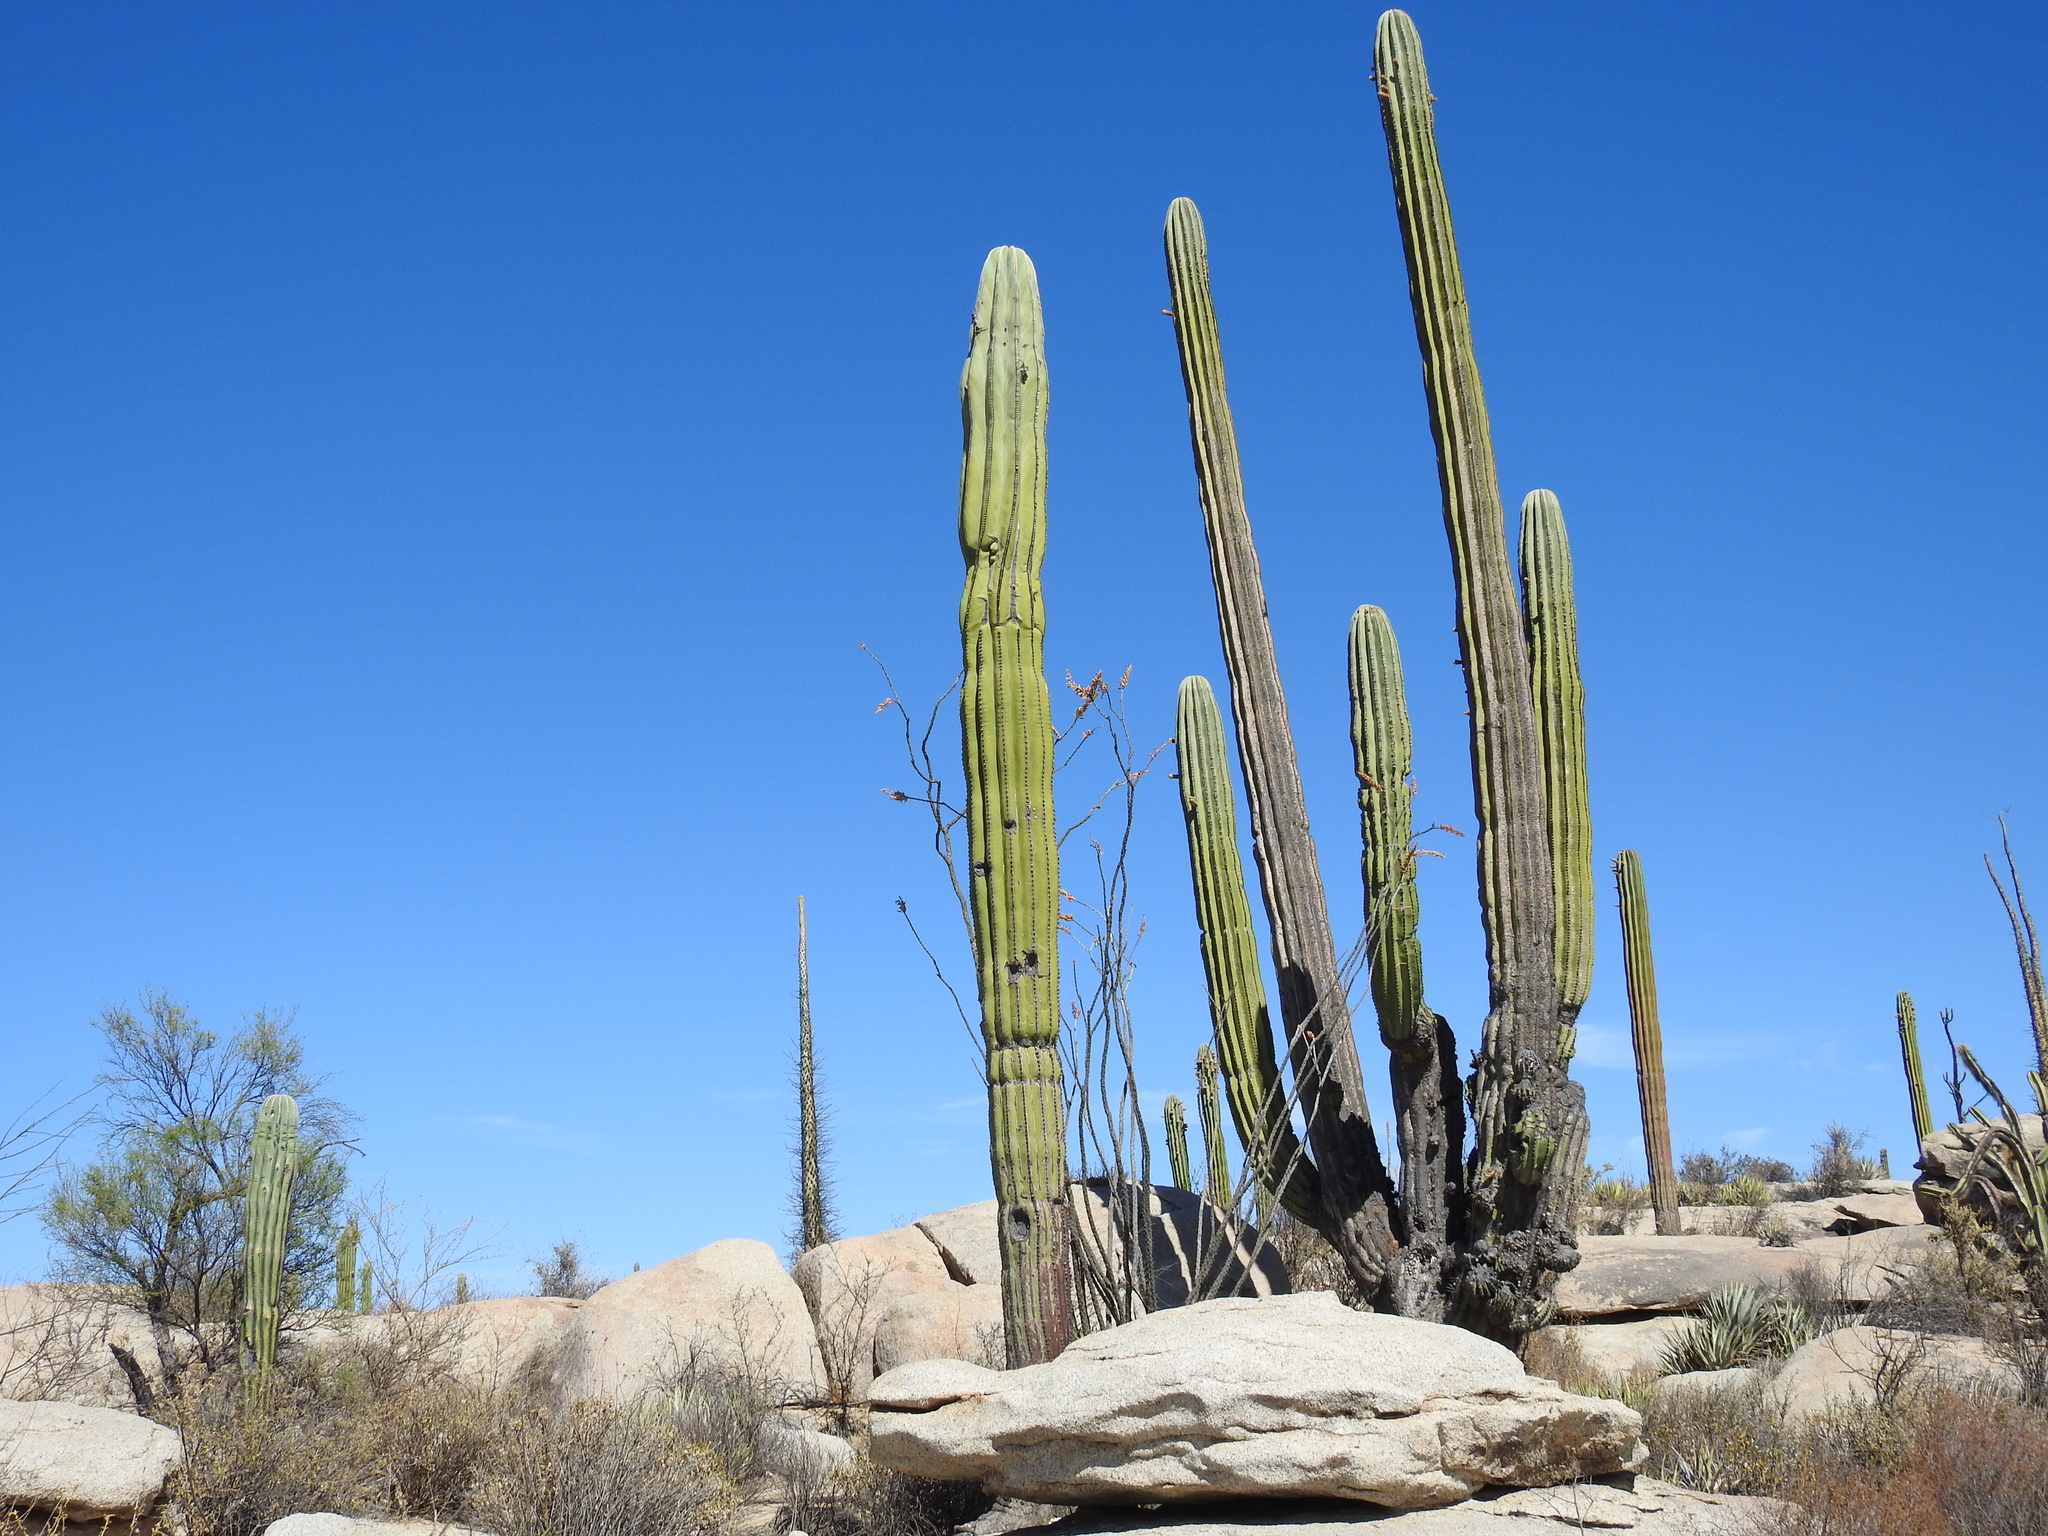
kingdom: Plantae
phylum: Tracheophyta
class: Magnoliopsida
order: Caryophyllales
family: Cactaceae
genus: Pachycereus
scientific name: Pachycereus pringlei
